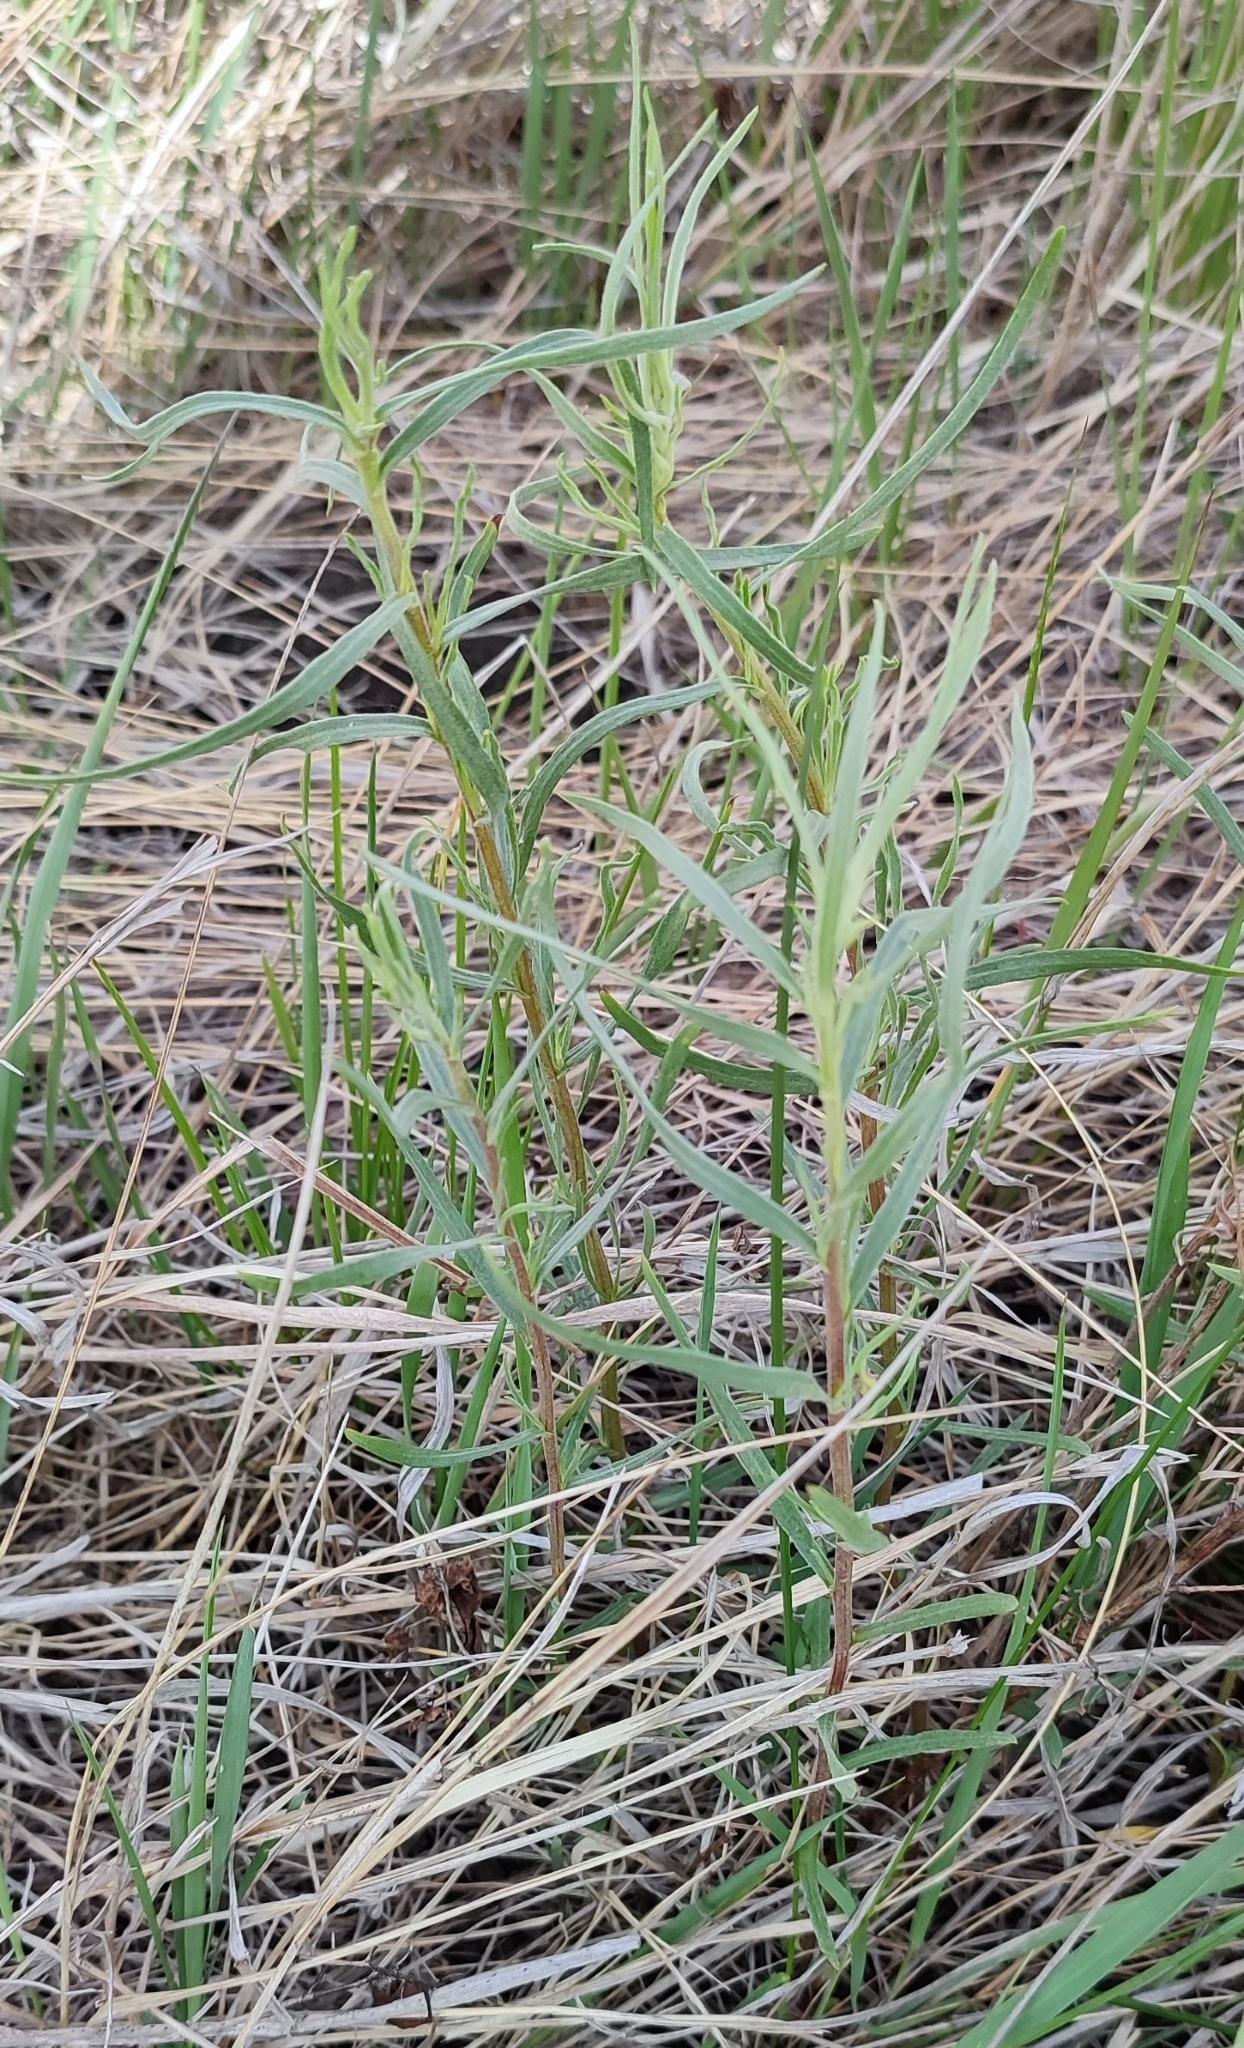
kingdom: Plantae
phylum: Tracheophyta
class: Magnoliopsida
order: Asterales
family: Asteraceae
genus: Artemisia
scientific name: Artemisia dracunculus
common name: Tarragon
